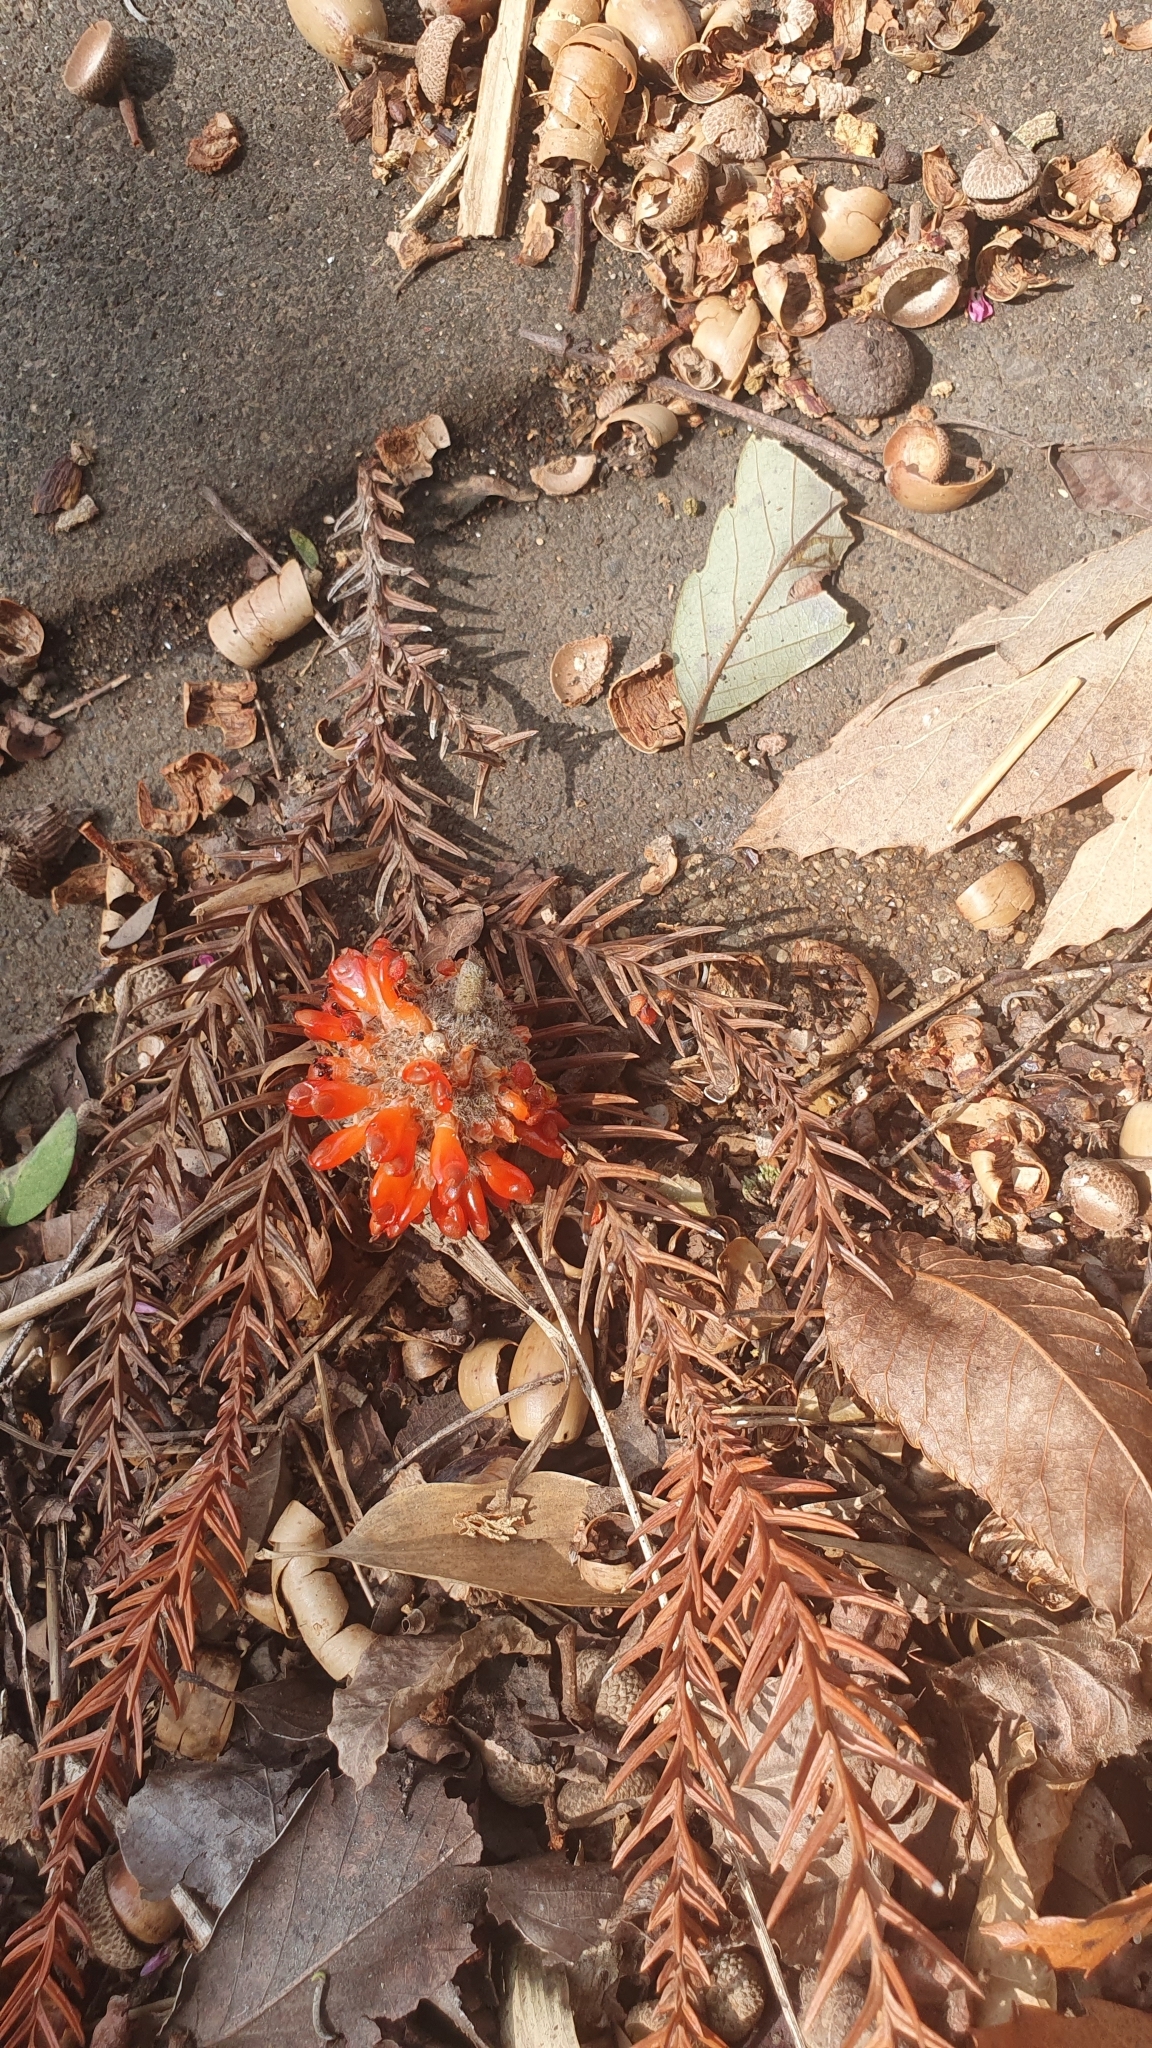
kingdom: Plantae
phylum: Tracheophyta
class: Magnoliopsida
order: Rosales
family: Moraceae
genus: Broussonetia
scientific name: Broussonetia papyrifera
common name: Paper mulberry
